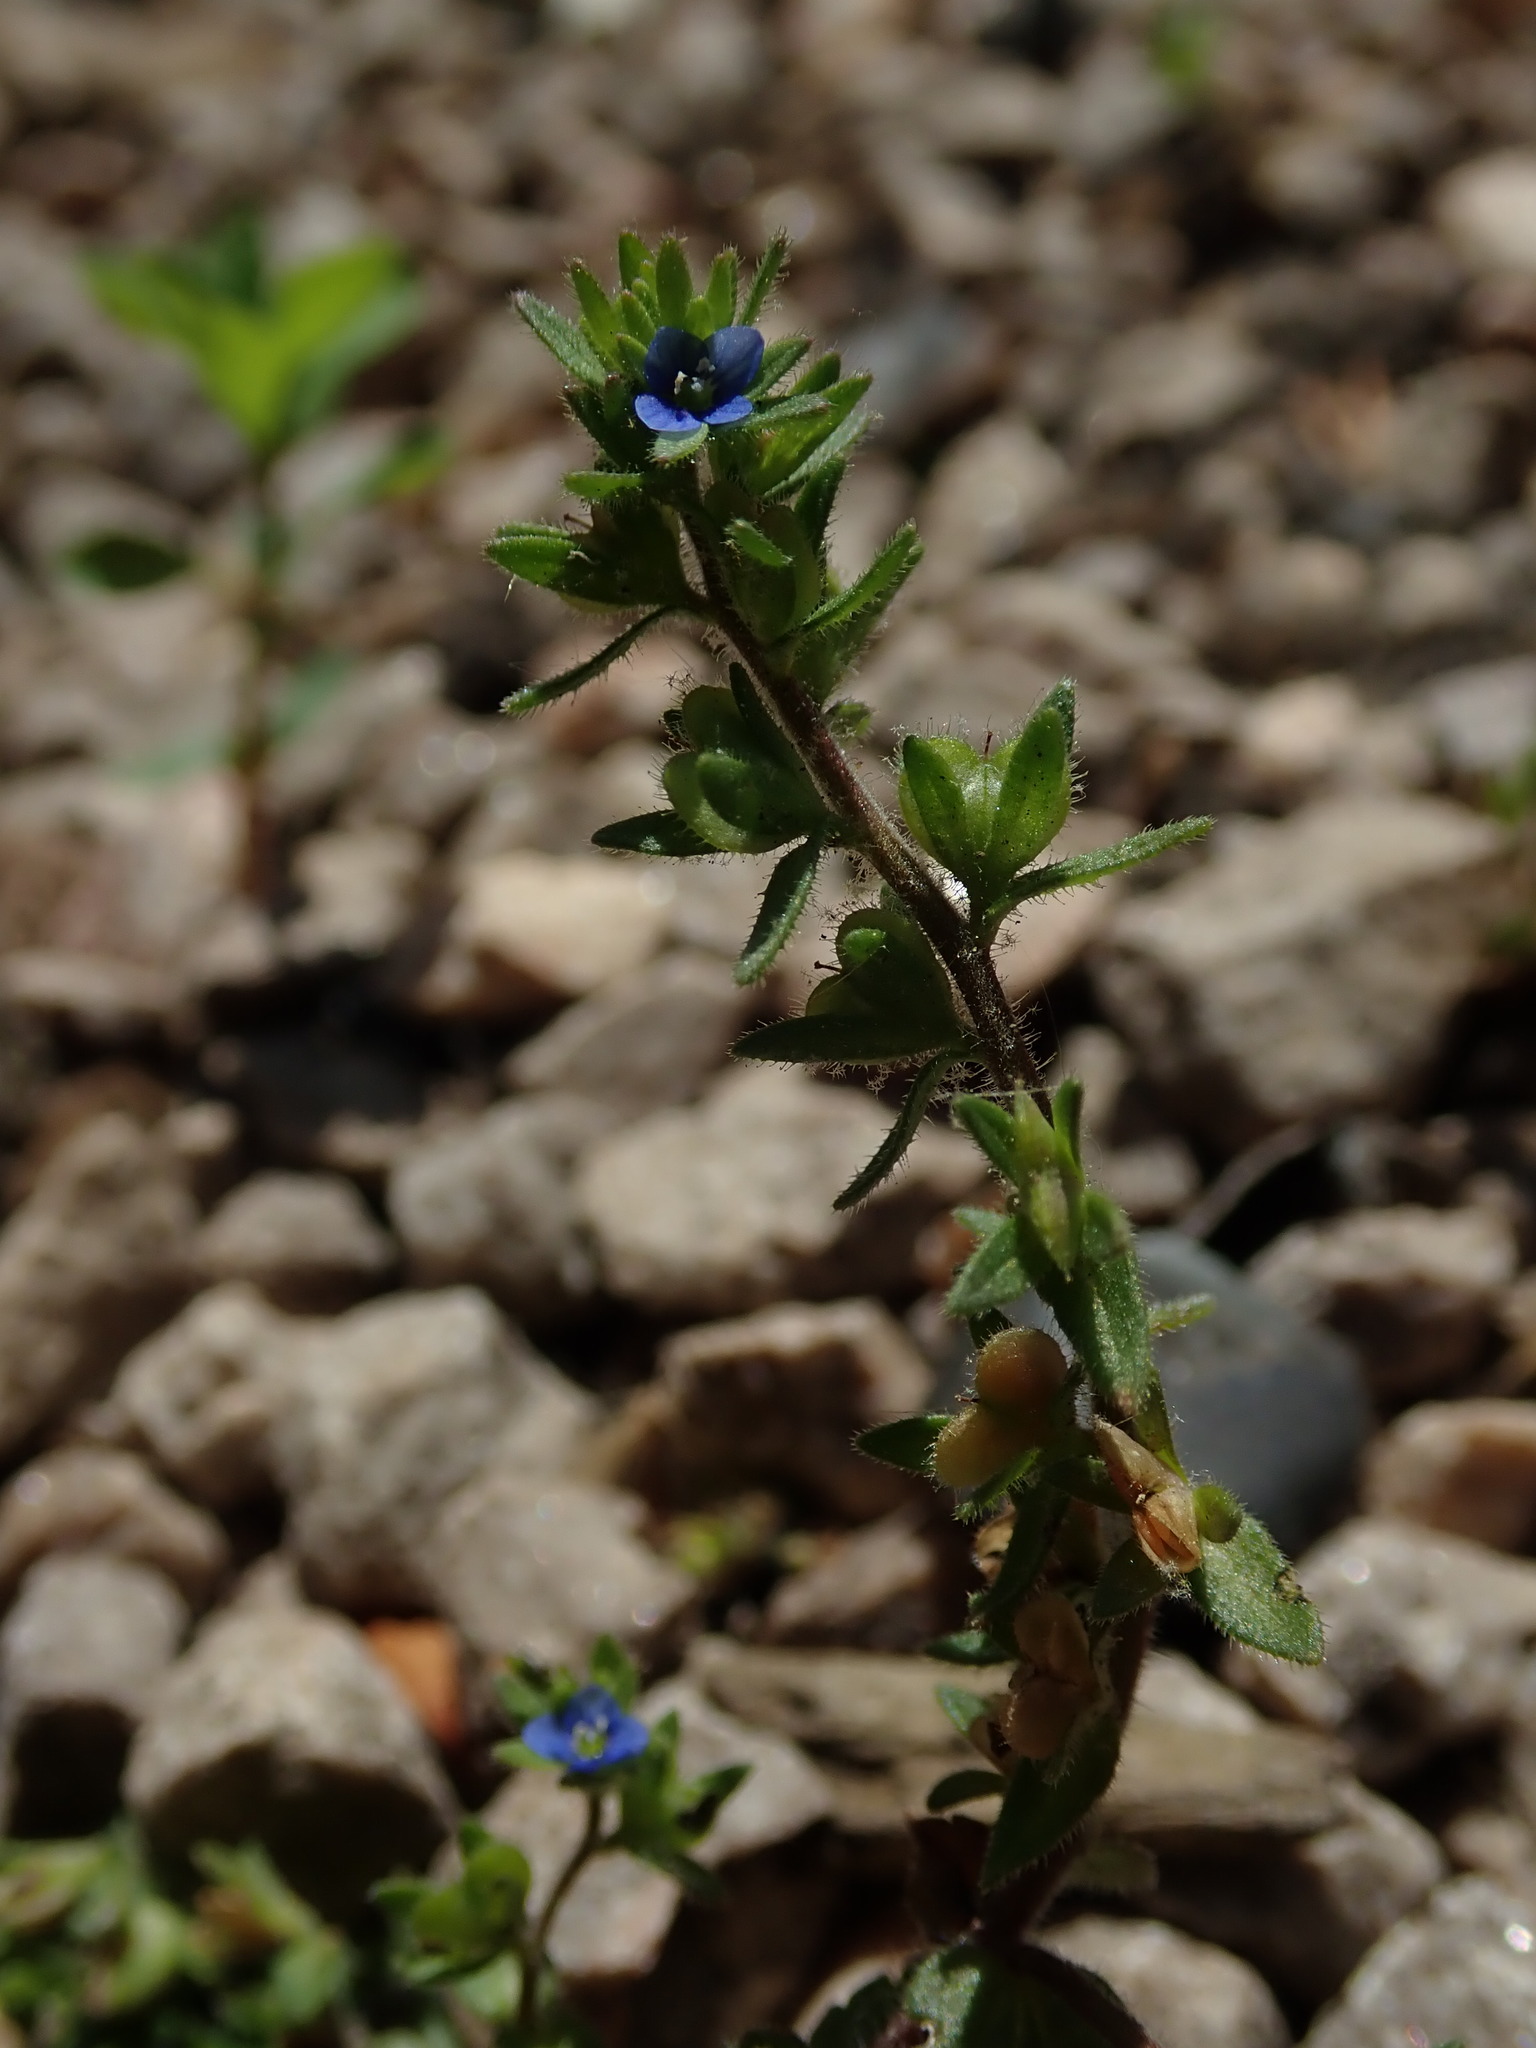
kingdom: Plantae
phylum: Tracheophyta
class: Magnoliopsida
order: Lamiales
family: Plantaginaceae
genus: Veronica
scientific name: Veronica arvensis
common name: Corn speedwell
